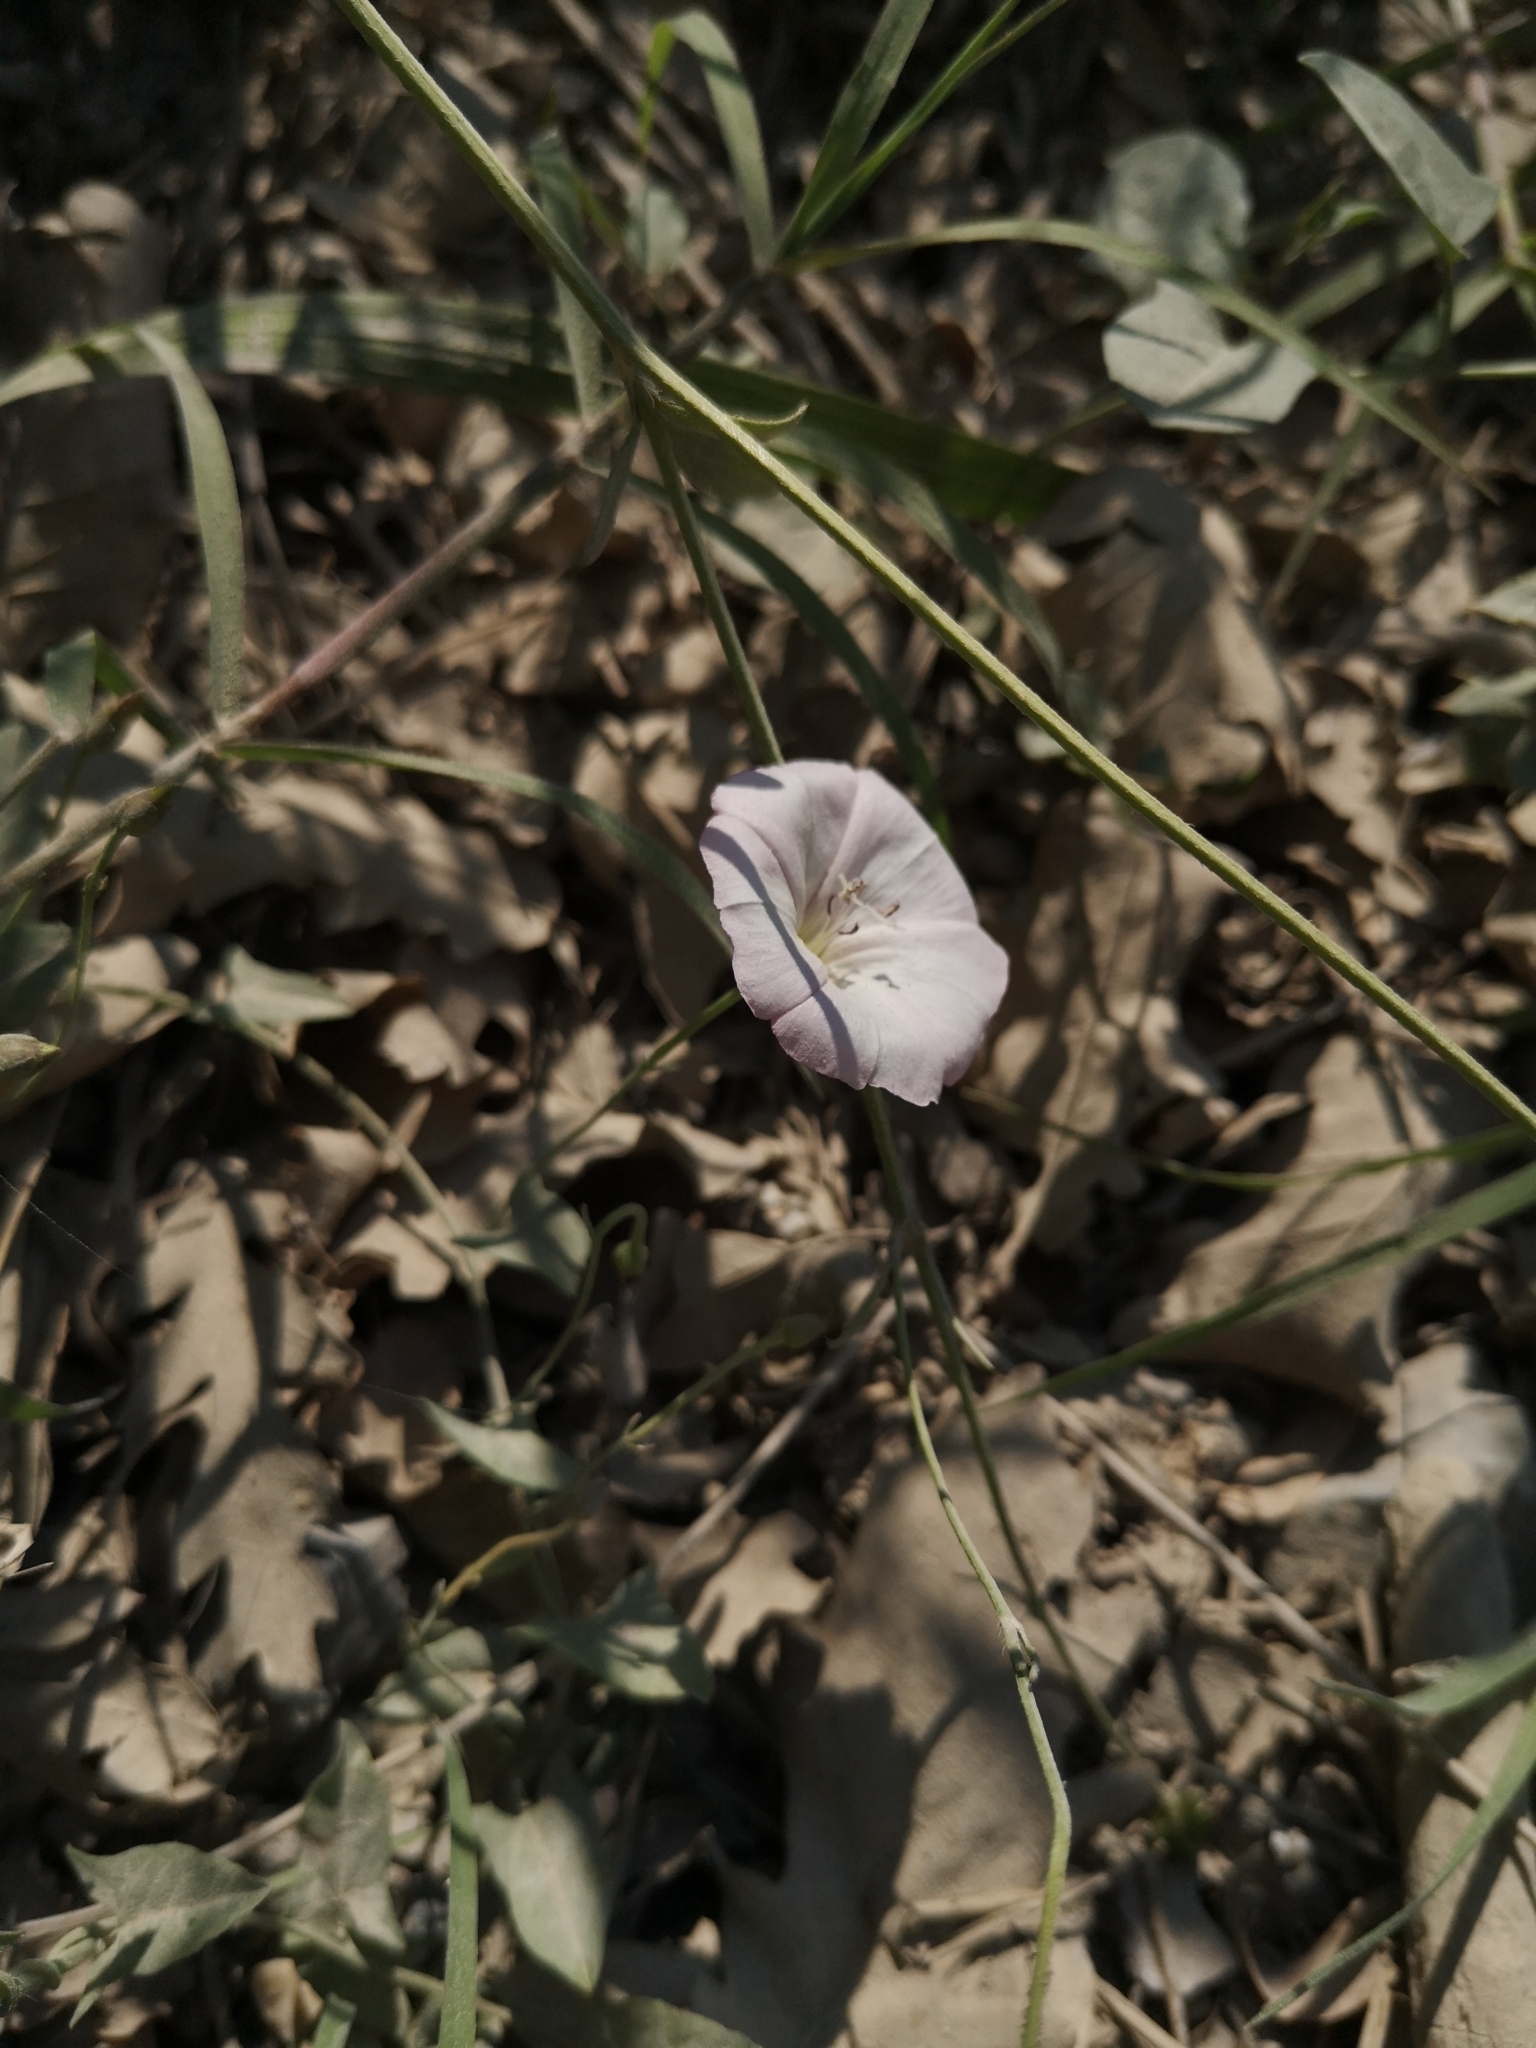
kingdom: Plantae
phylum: Tracheophyta
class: Magnoliopsida
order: Solanales
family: Convolvulaceae
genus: Convolvulus
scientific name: Convolvulus arvensis
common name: Field bindweed
